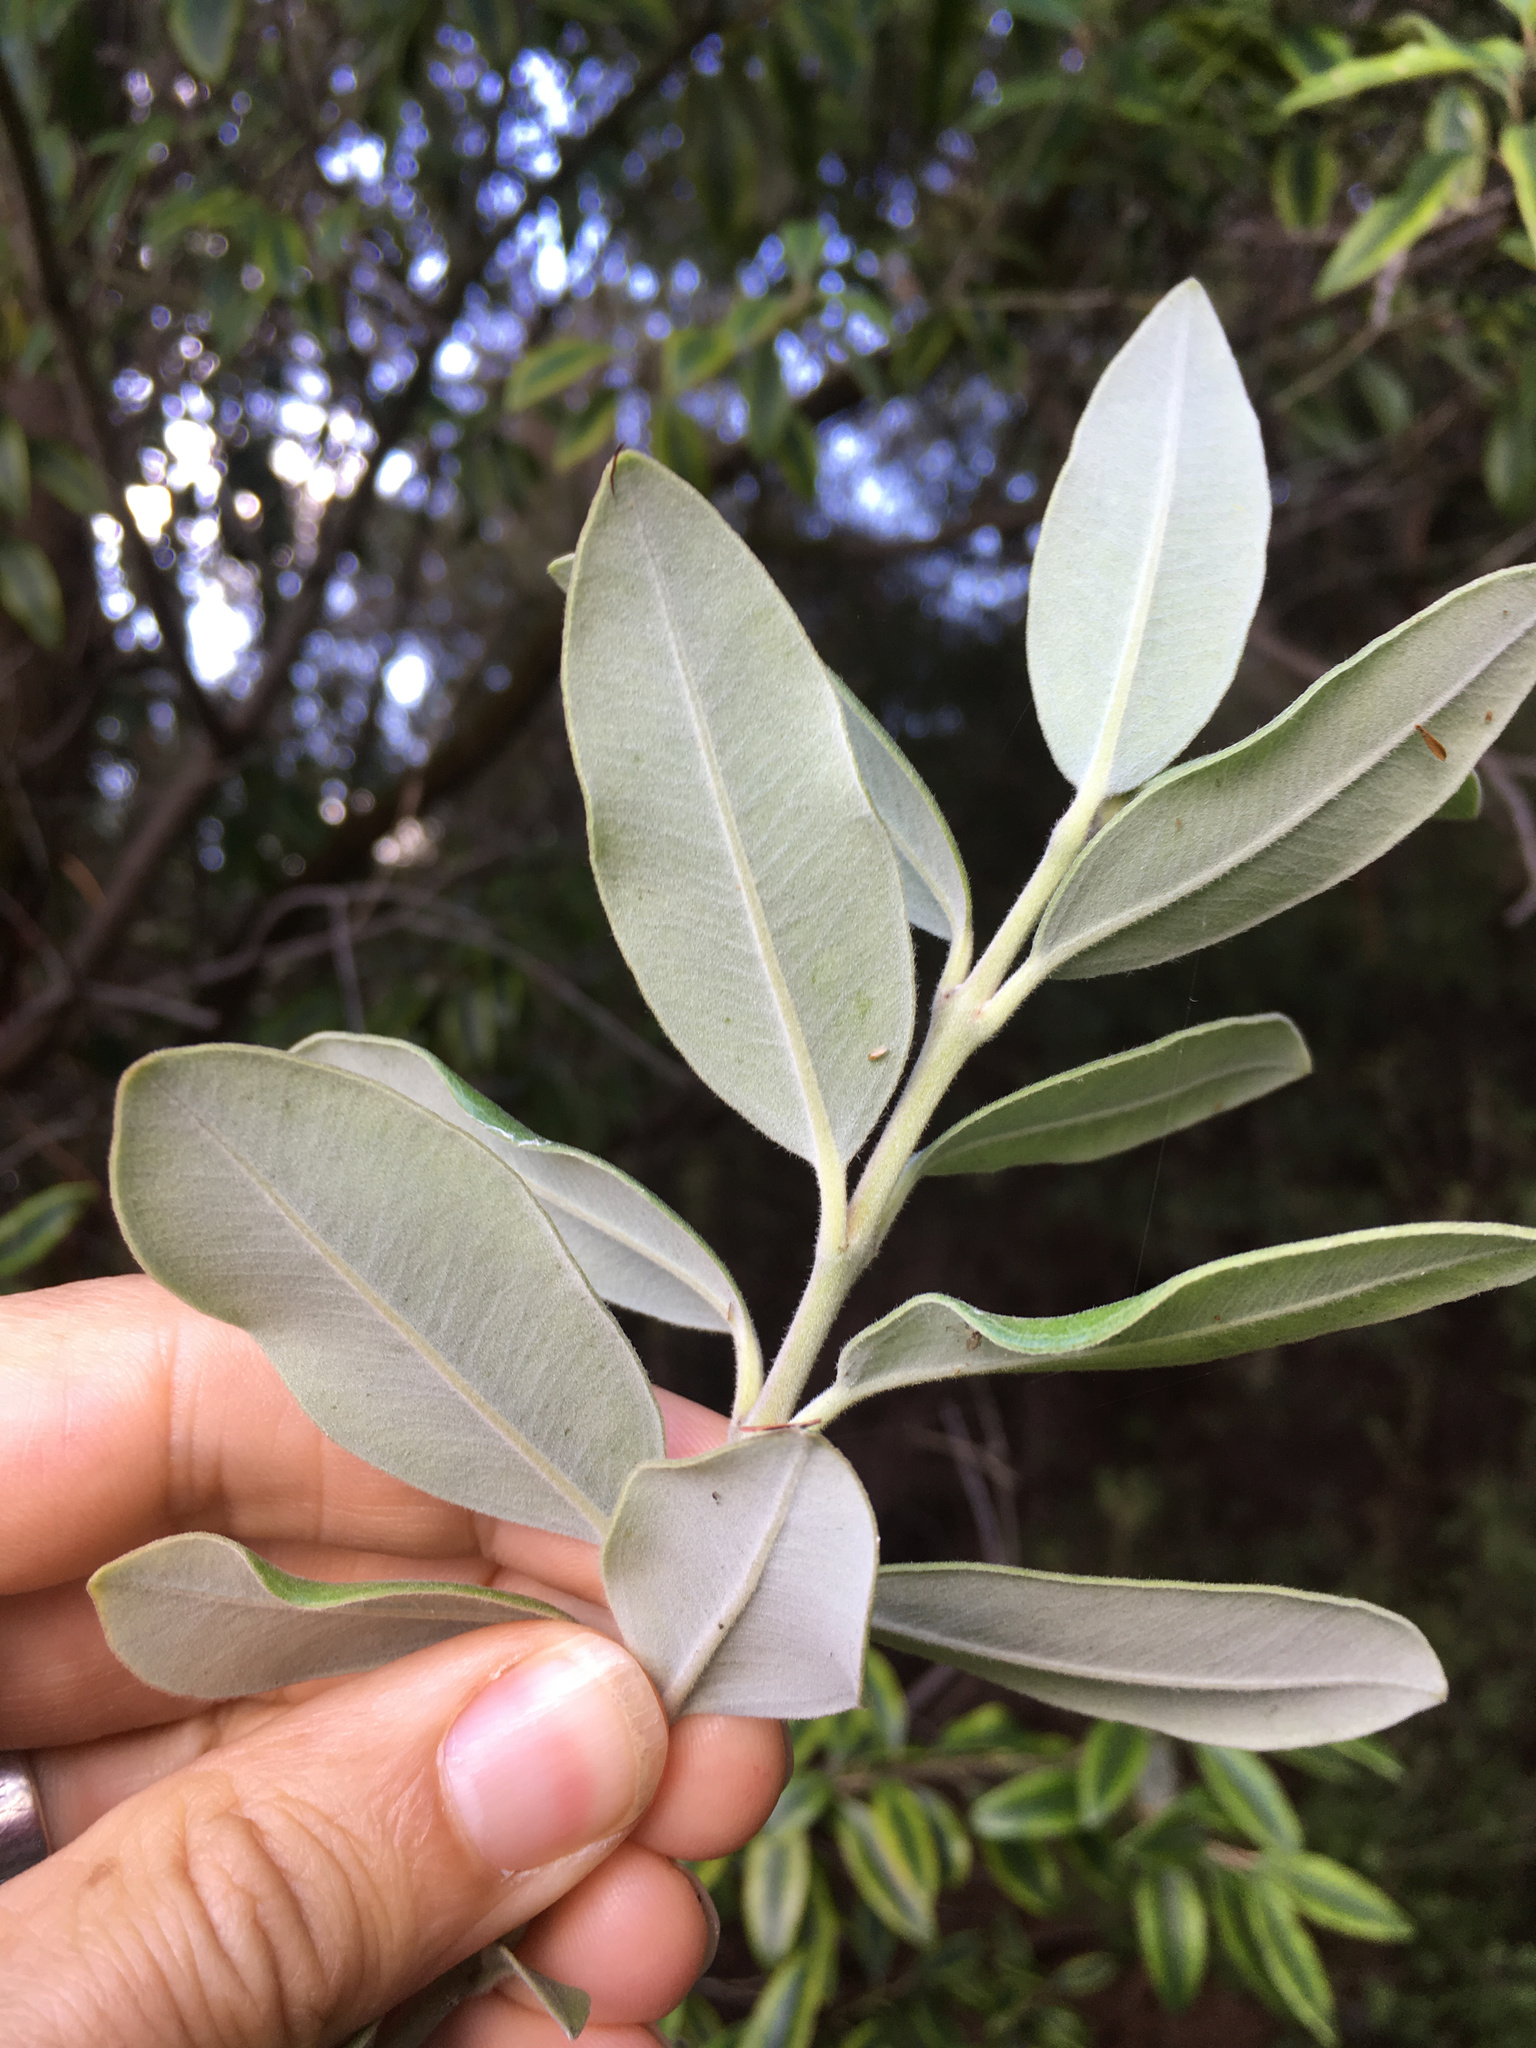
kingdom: Plantae
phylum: Tracheophyta
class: Magnoliopsida
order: Myrtales
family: Myrtaceae
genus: Metrosideros
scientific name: Metrosideros excelsa
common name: New zealand christmastree
